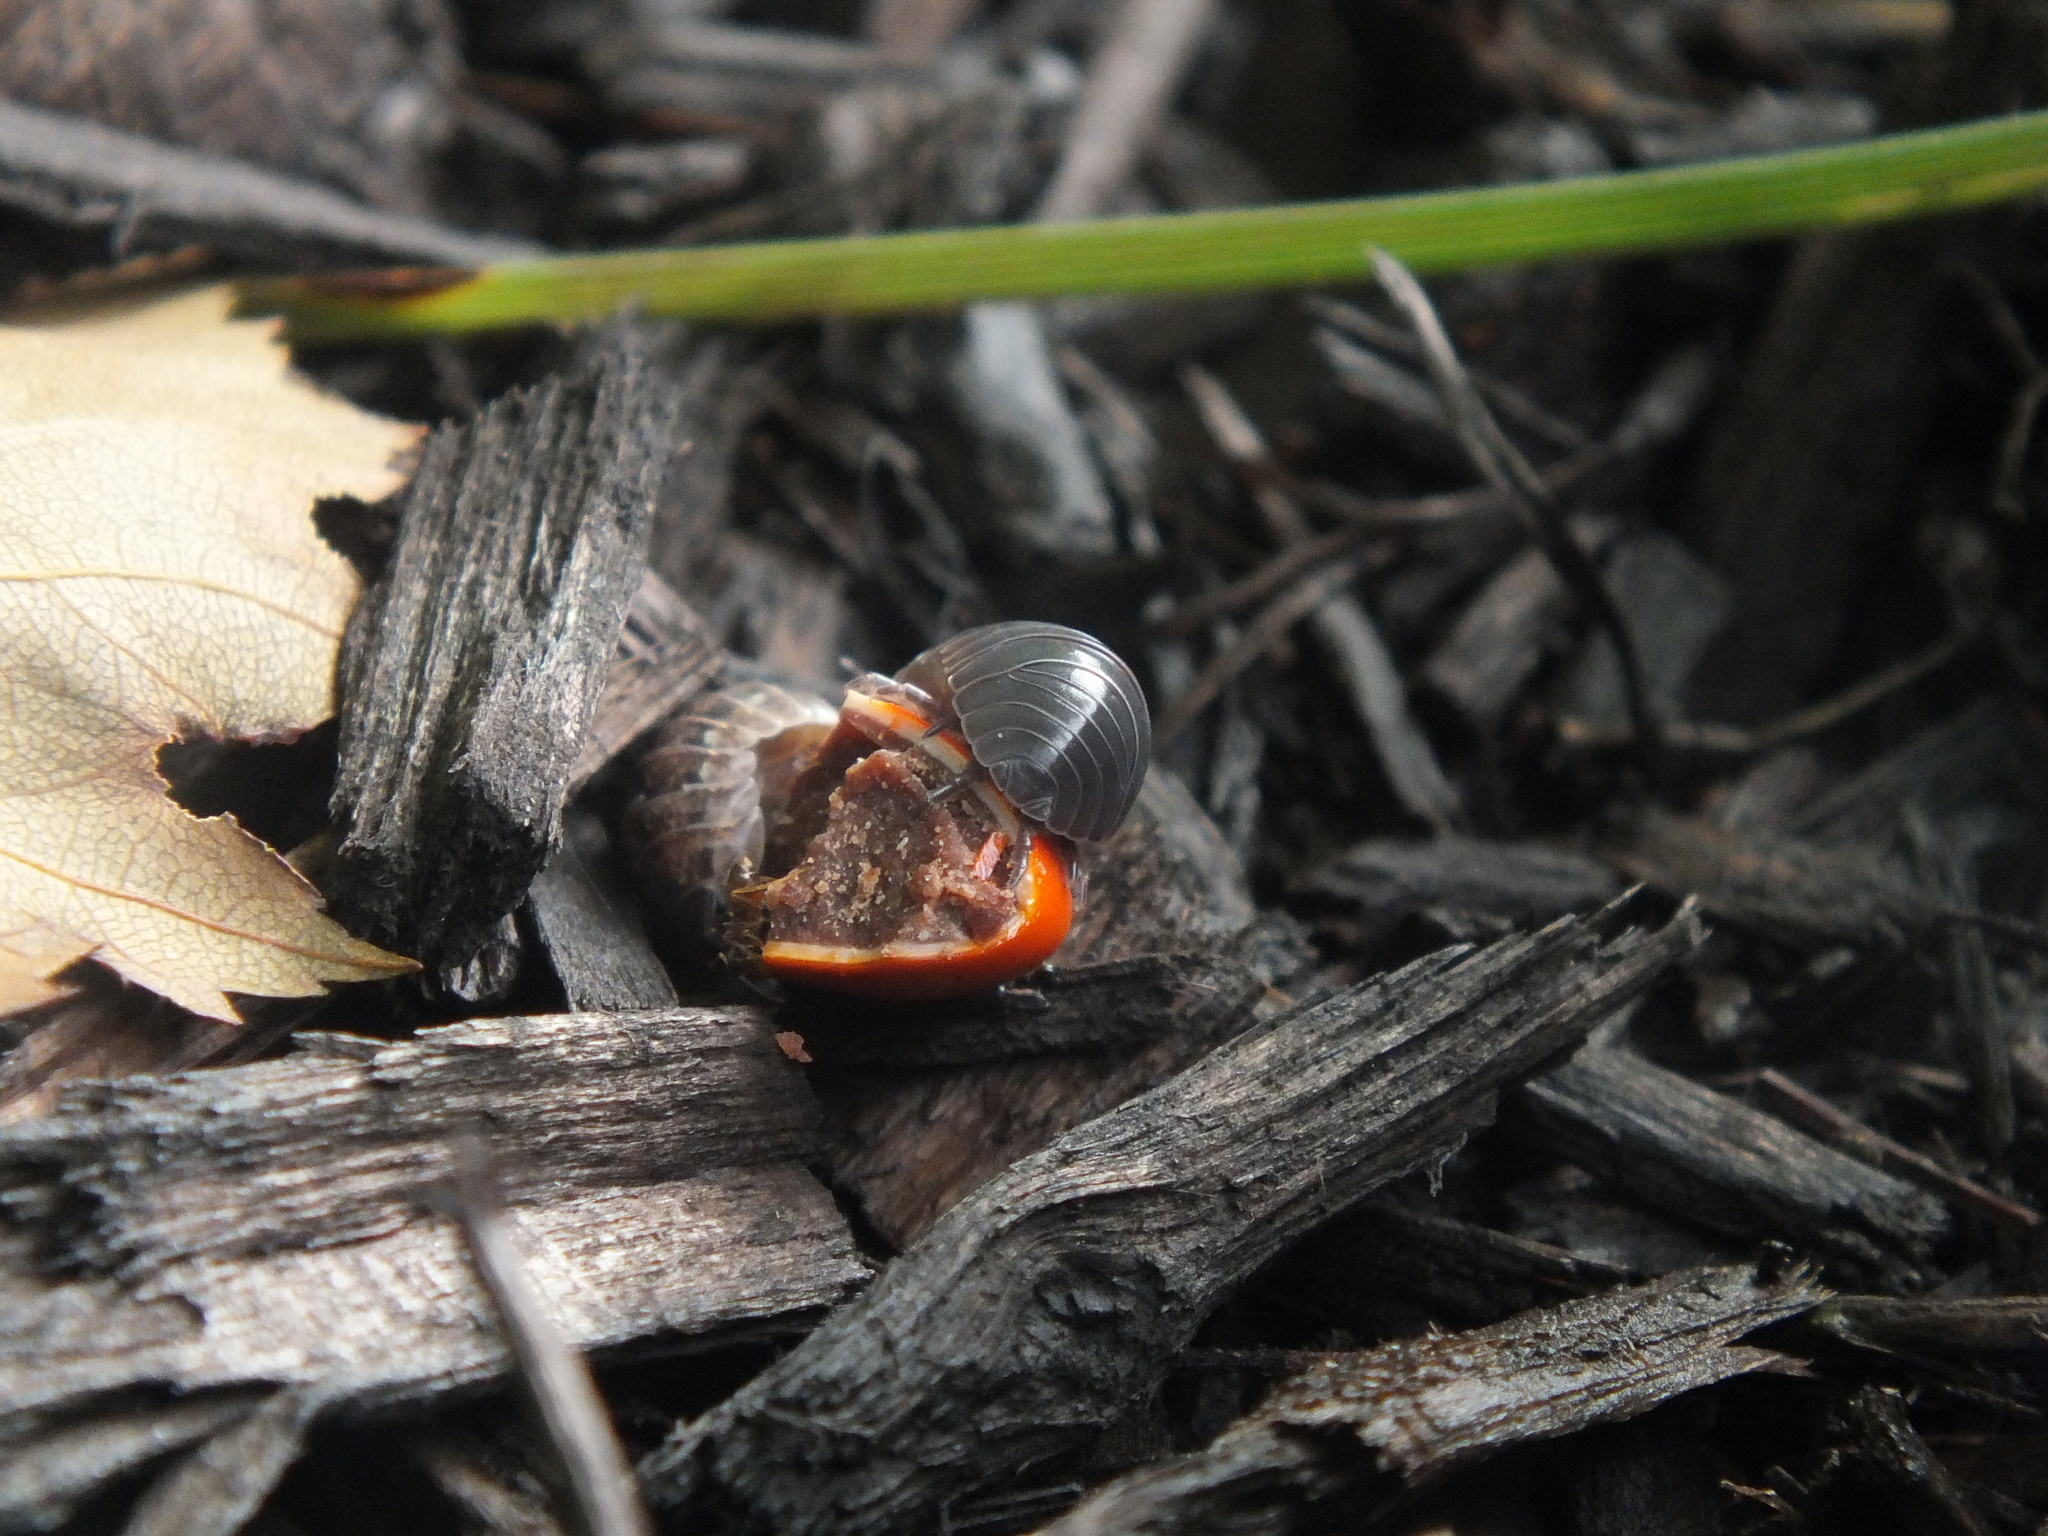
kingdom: Animalia
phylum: Arthropoda
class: Malacostraca
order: Isopoda
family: Armadillidiidae
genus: Armadillidium
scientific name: Armadillidium vulgare
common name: Common pill woodlouse
